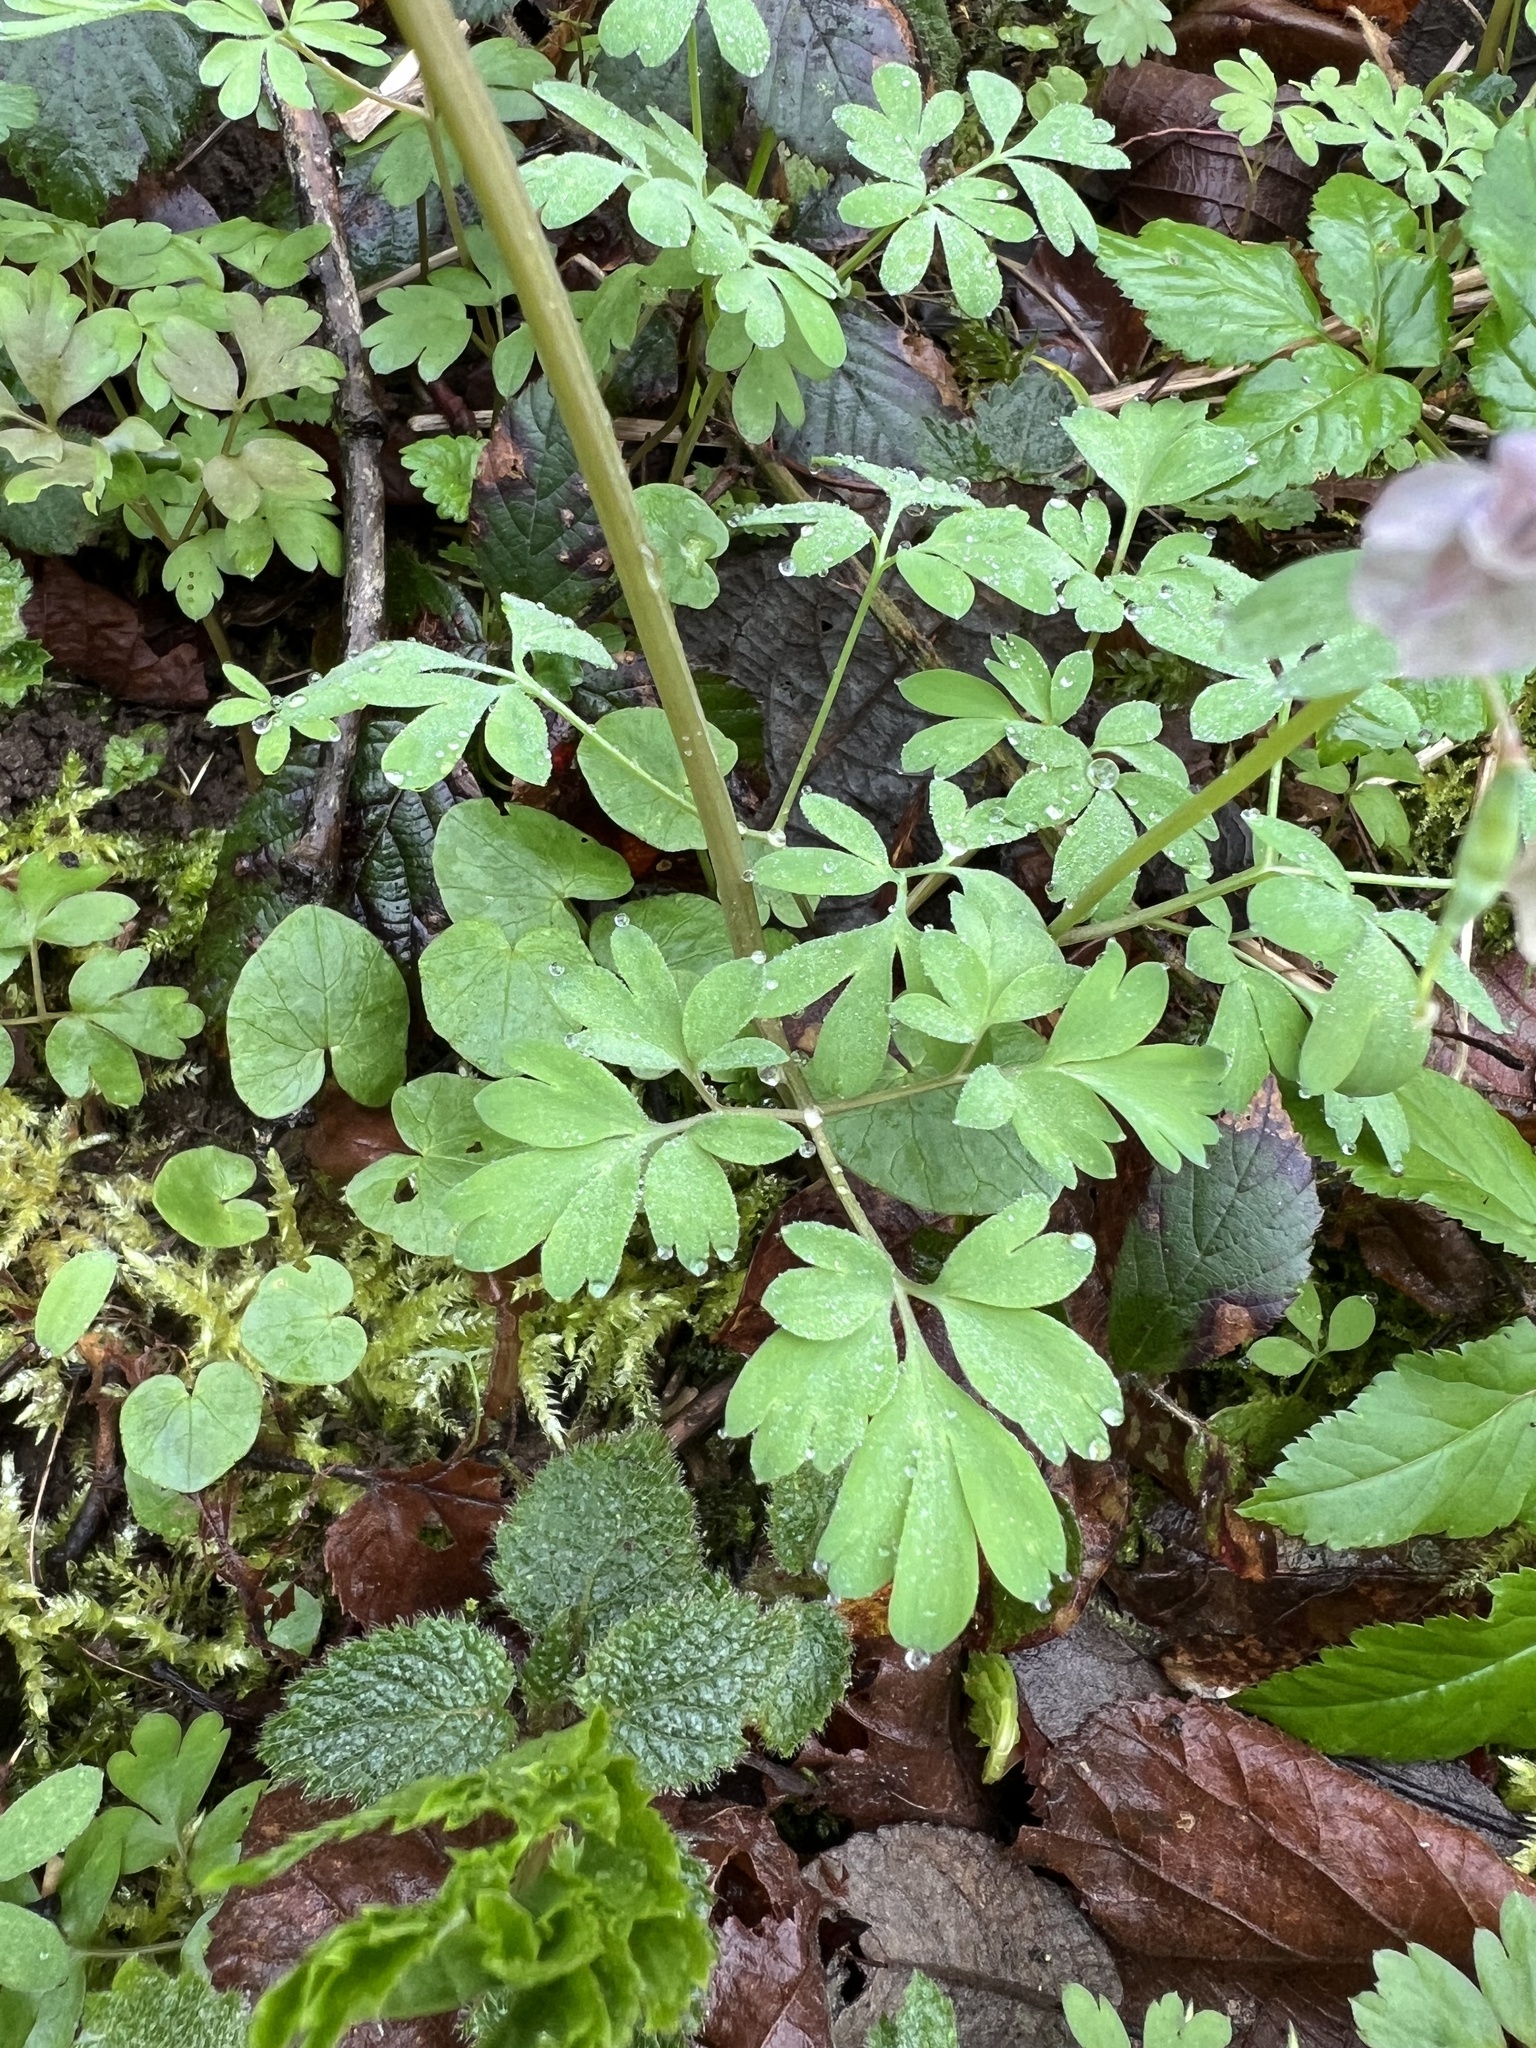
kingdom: Plantae
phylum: Tracheophyta
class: Magnoliopsida
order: Ranunculales
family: Papaveraceae
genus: Corydalis
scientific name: Corydalis solida
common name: Bird-in-a-bush
